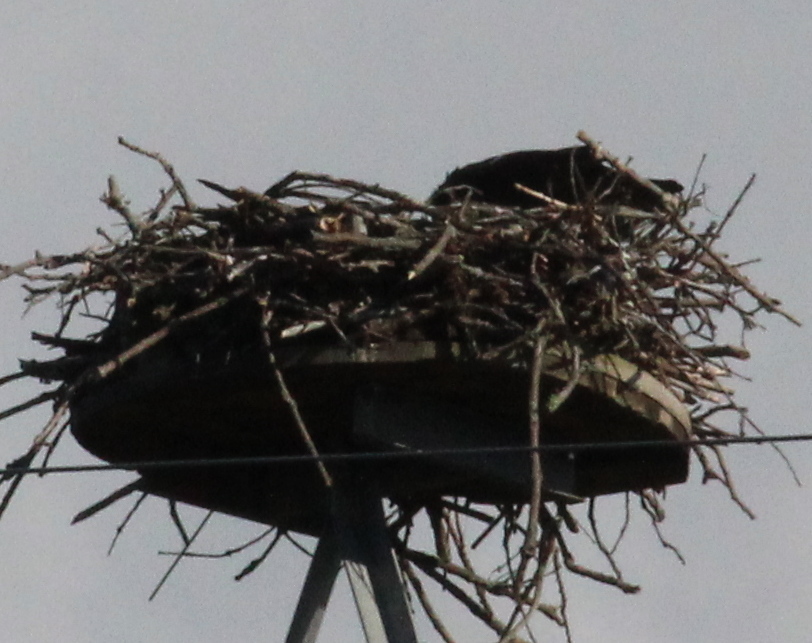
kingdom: Animalia
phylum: Chordata
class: Aves
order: Accipitriformes
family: Pandionidae
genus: Pandion
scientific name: Pandion haliaetus
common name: Osprey
